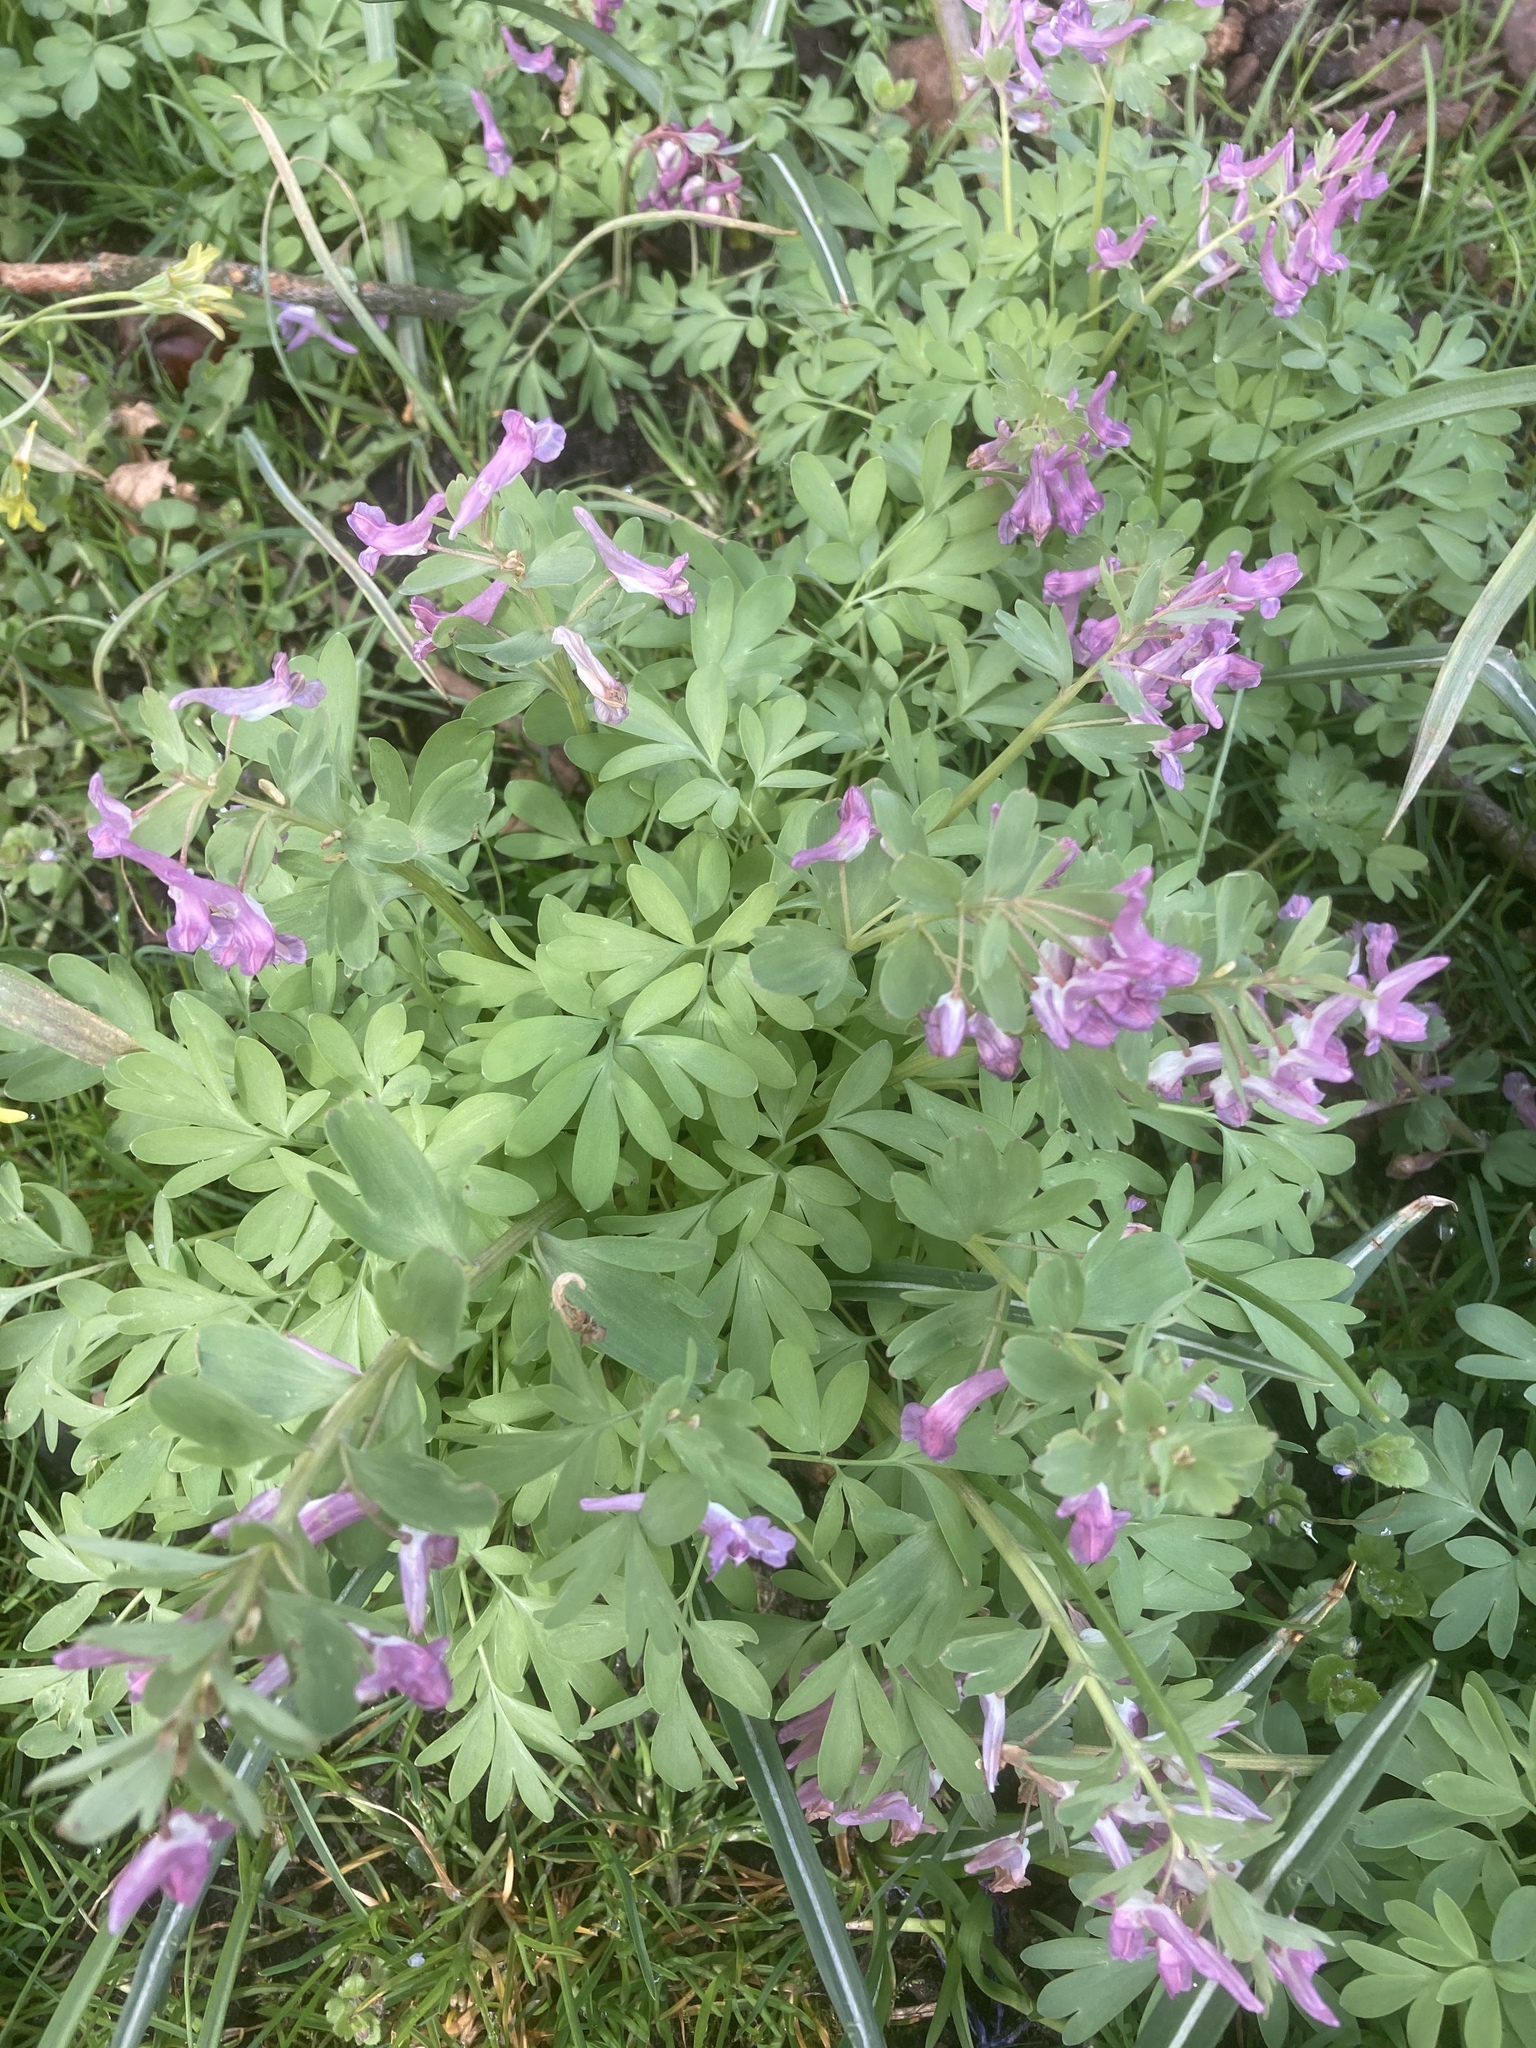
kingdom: Plantae
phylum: Tracheophyta
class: Magnoliopsida
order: Ranunculales
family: Papaveraceae
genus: Corydalis
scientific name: Corydalis solida
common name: Bird-in-a-bush
